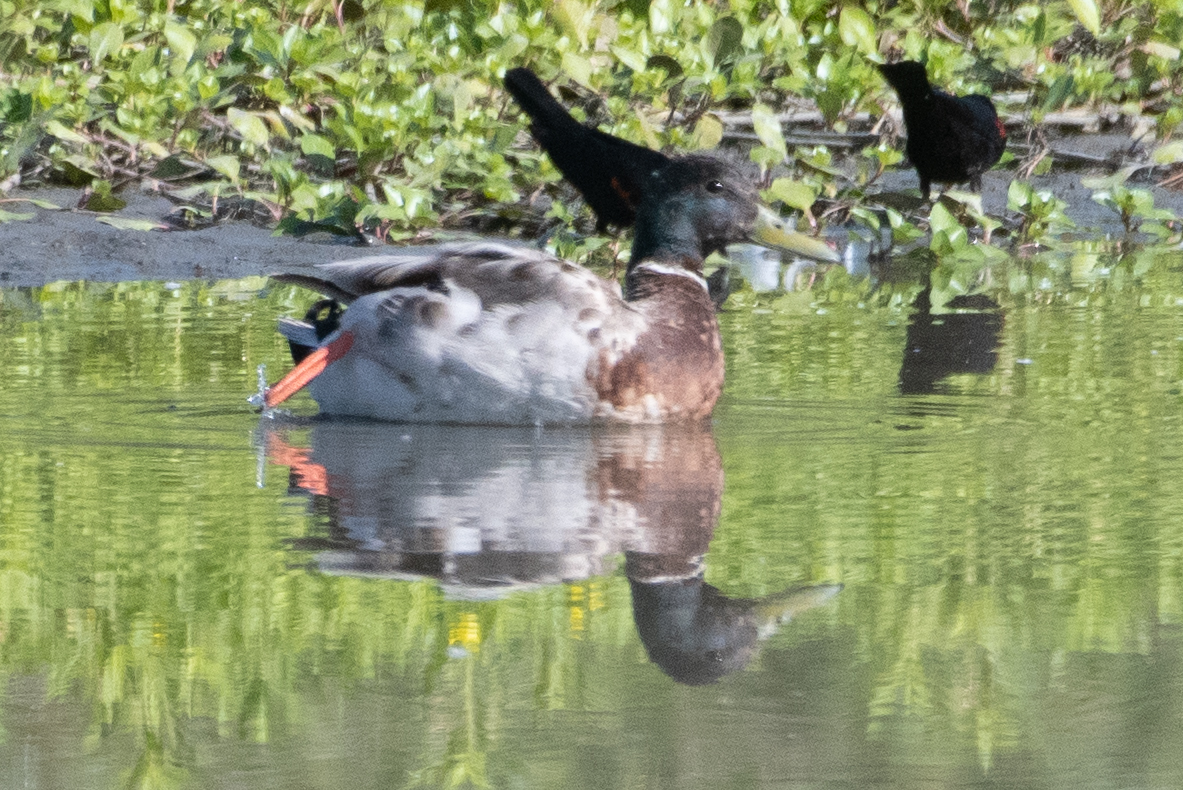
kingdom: Animalia
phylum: Chordata
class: Aves
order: Anseriformes
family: Anatidae
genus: Anas
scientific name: Anas platyrhynchos
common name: Mallard
